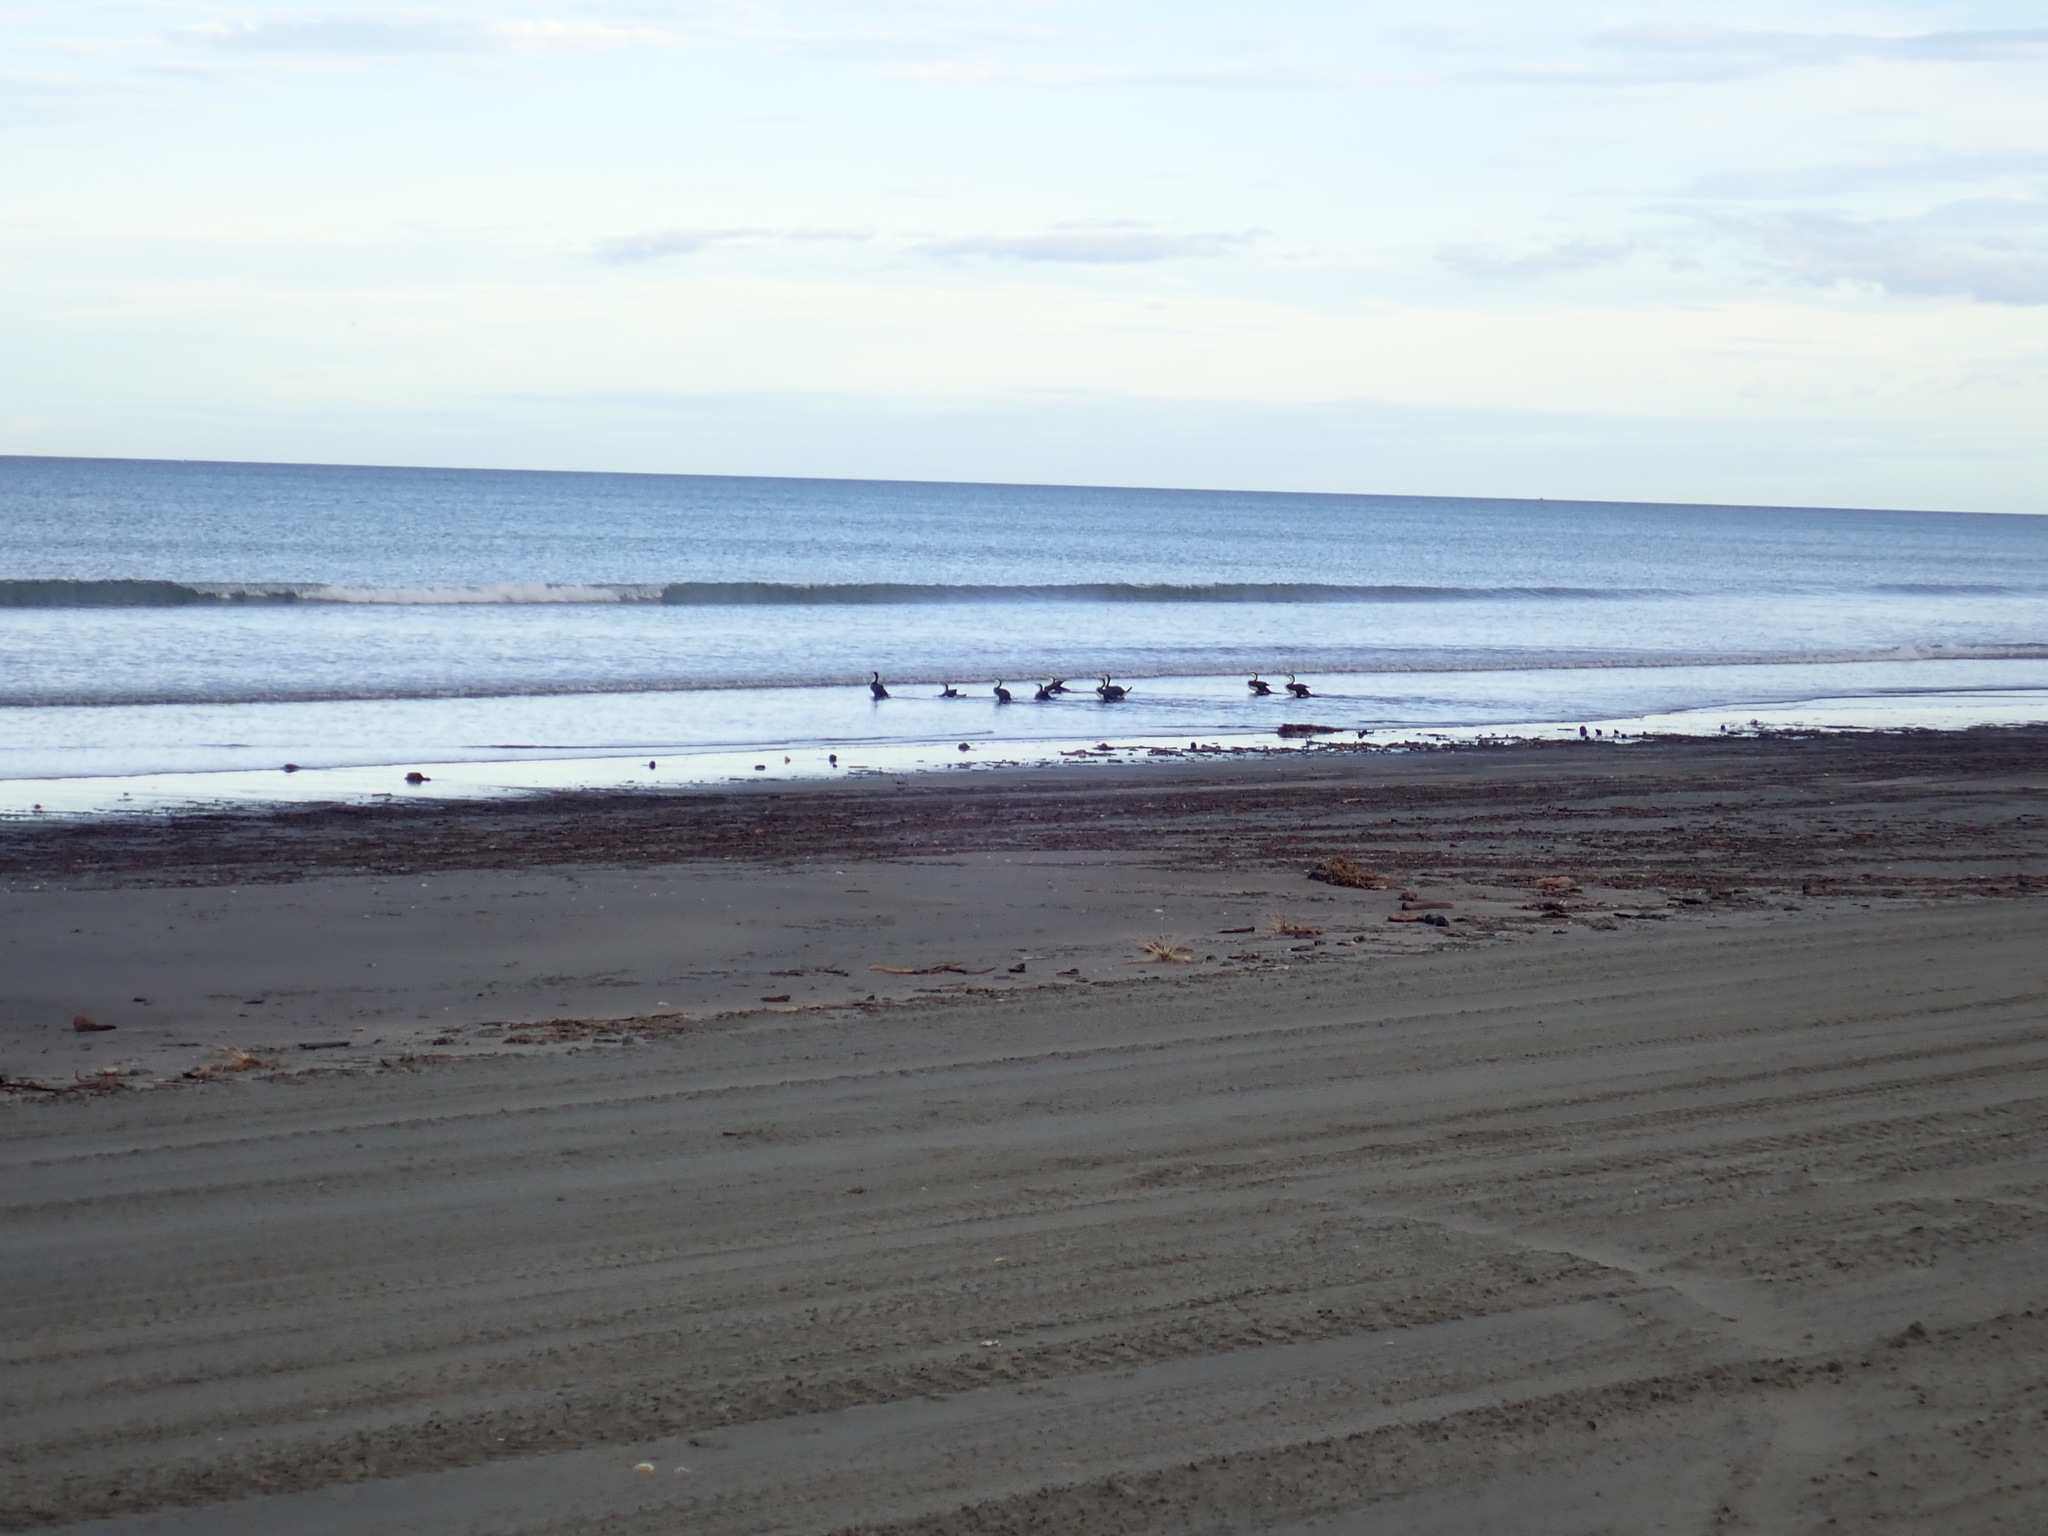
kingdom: Animalia
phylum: Chordata
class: Aves
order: Suliformes
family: Phalacrocoracidae
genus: Phalacrocorax
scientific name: Phalacrocorax varius
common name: Pied cormorant
